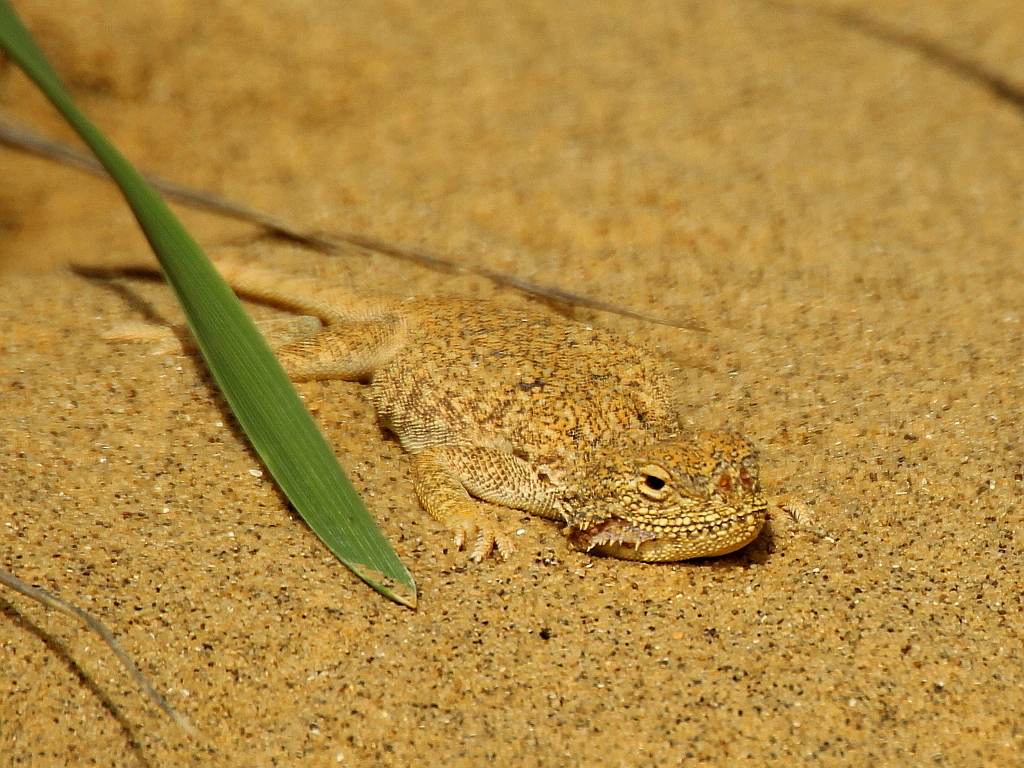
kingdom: Animalia
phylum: Chordata
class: Squamata
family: Agamidae
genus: Phrynocephalus
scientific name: Phrynocephalus mystaceus
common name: Secret toadhead agama
